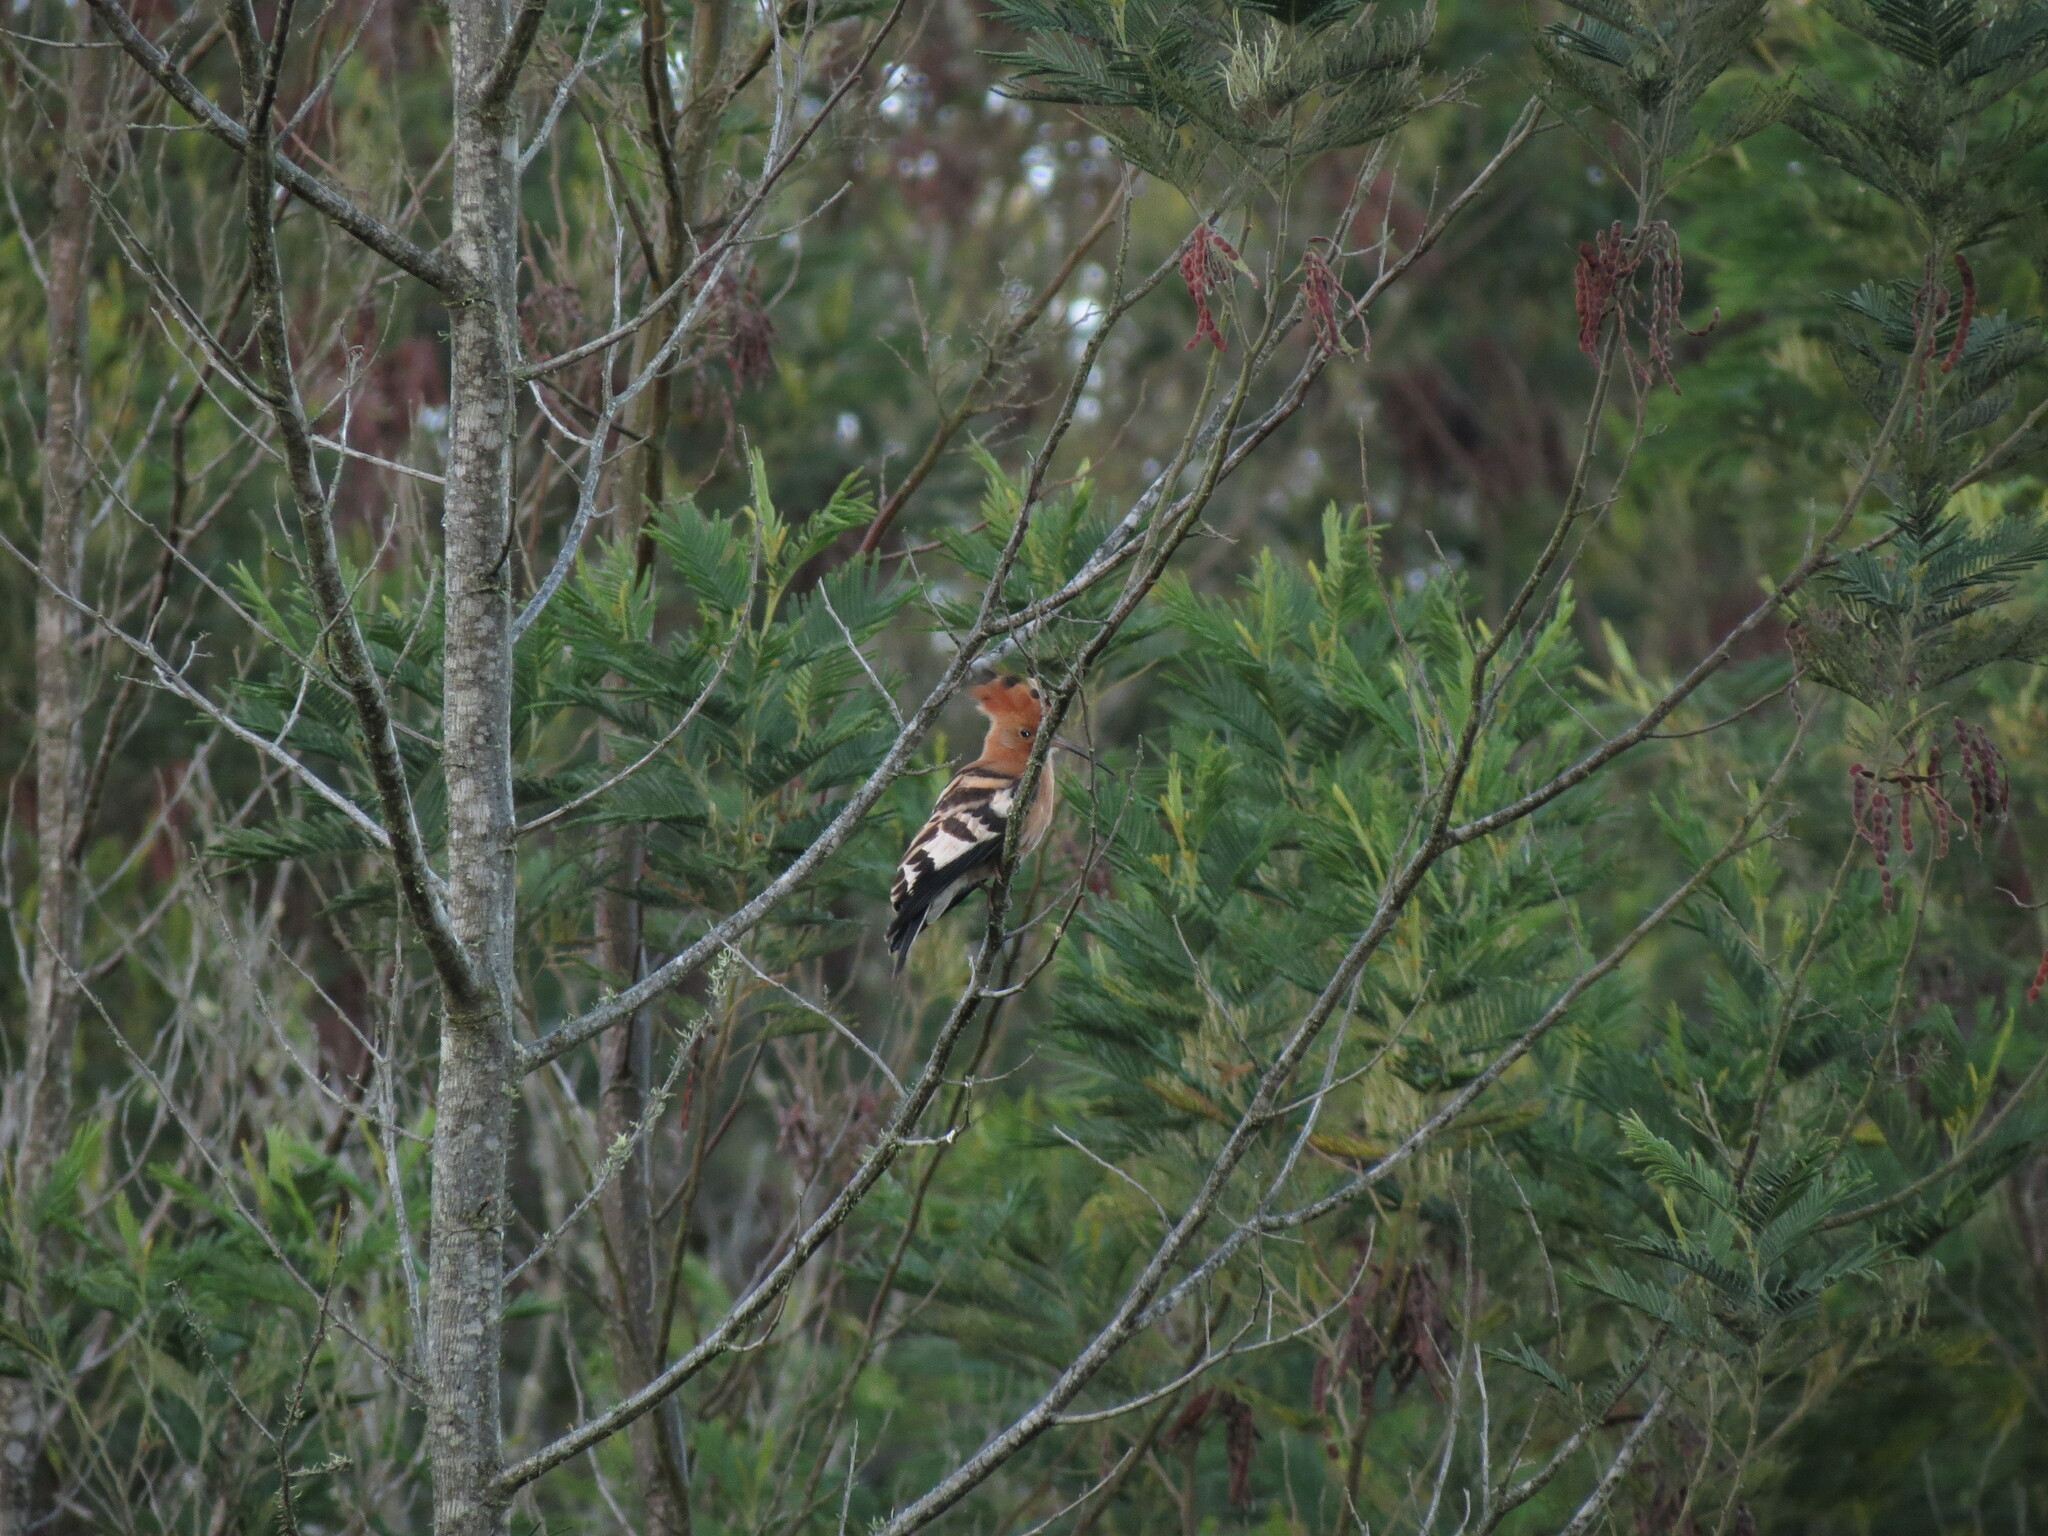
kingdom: Animalia
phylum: Chordata
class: Aves
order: Bucerotiformes
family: Upupidae
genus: Upupa
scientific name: Upupa africana
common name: African hoopoe
